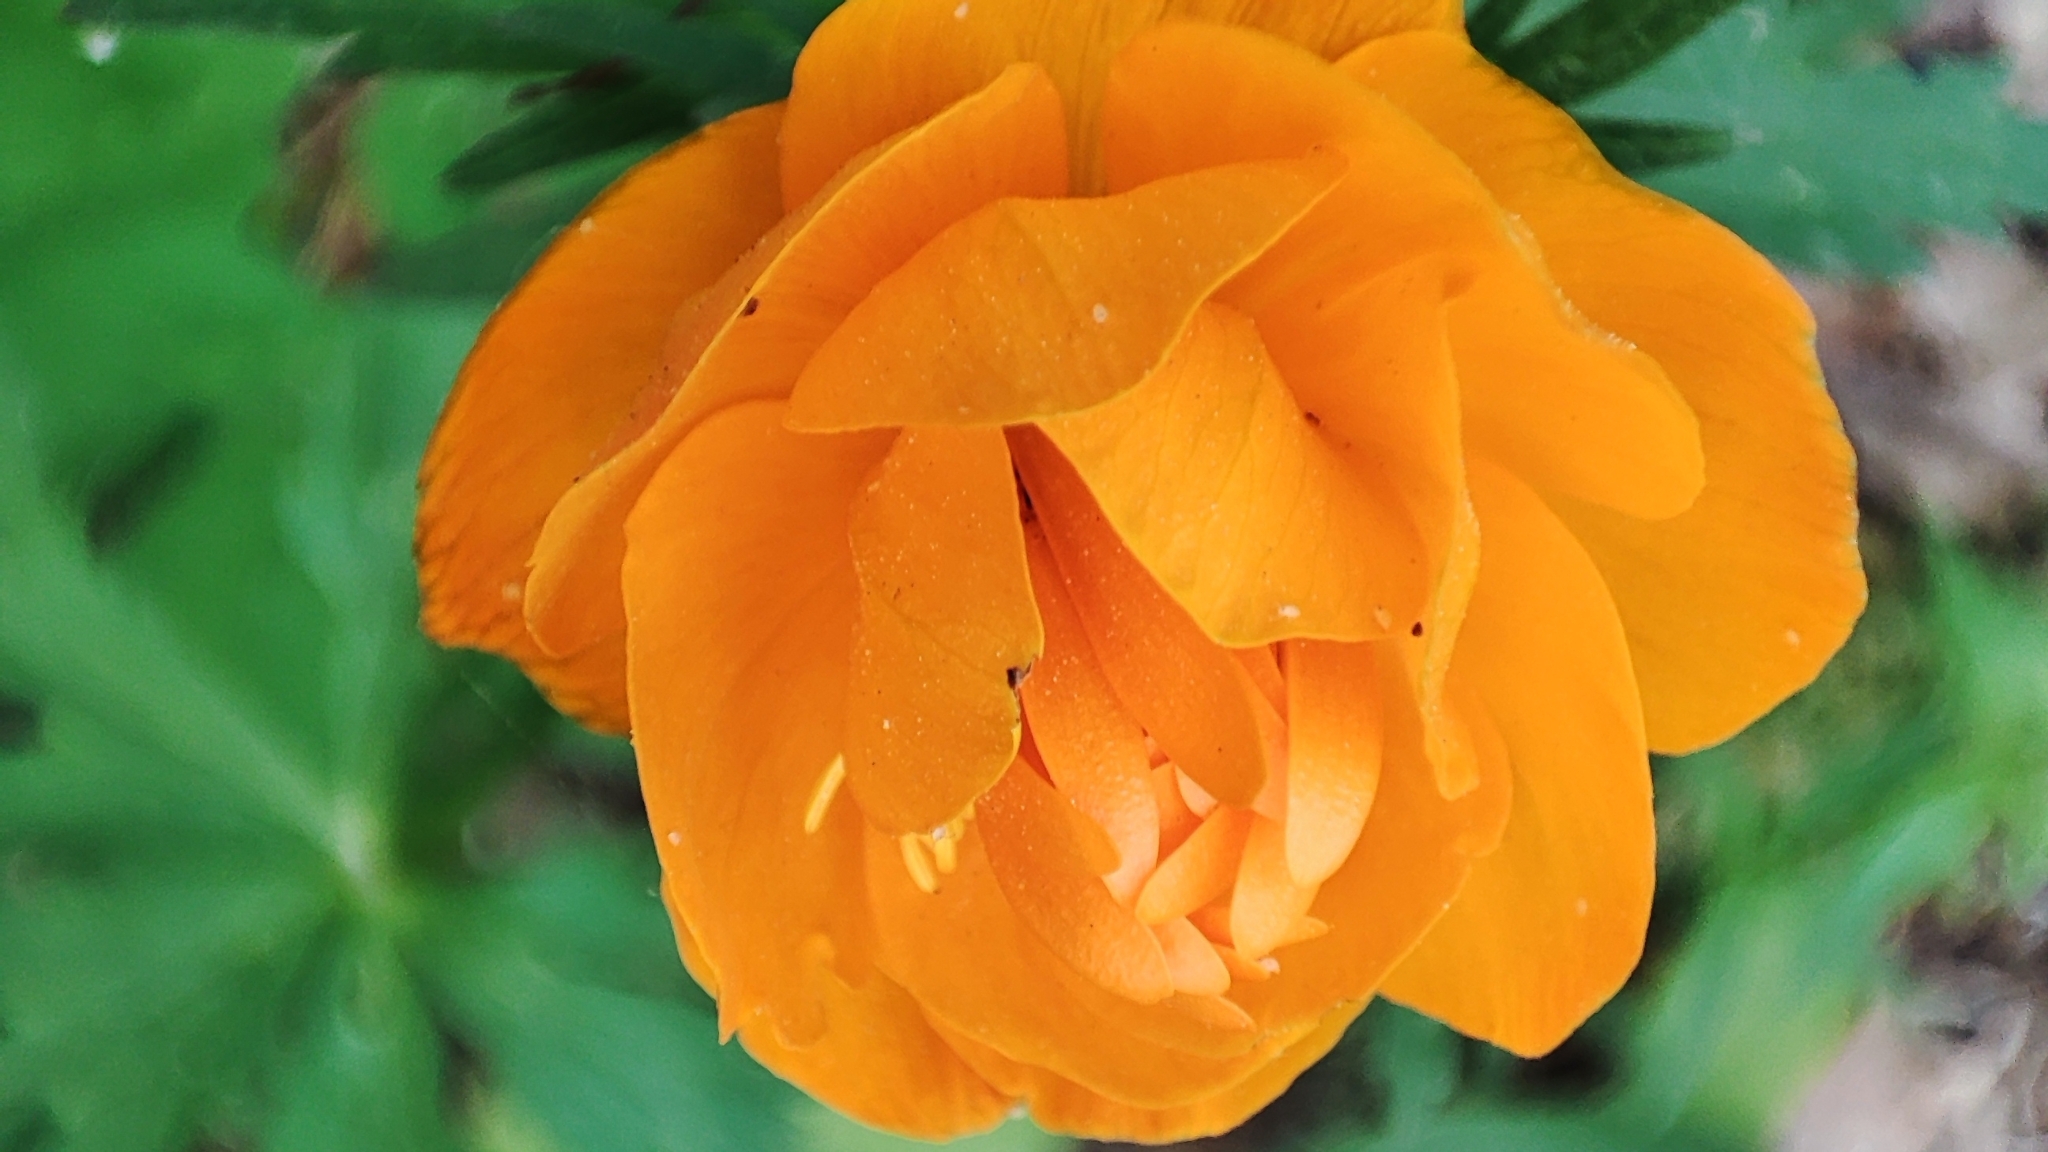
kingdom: Plantae
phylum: Tracheophyta
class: Magnoliopsida
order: Ranunculales
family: Ranunculaceae
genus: Trollius
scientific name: Trollius asiaticus
